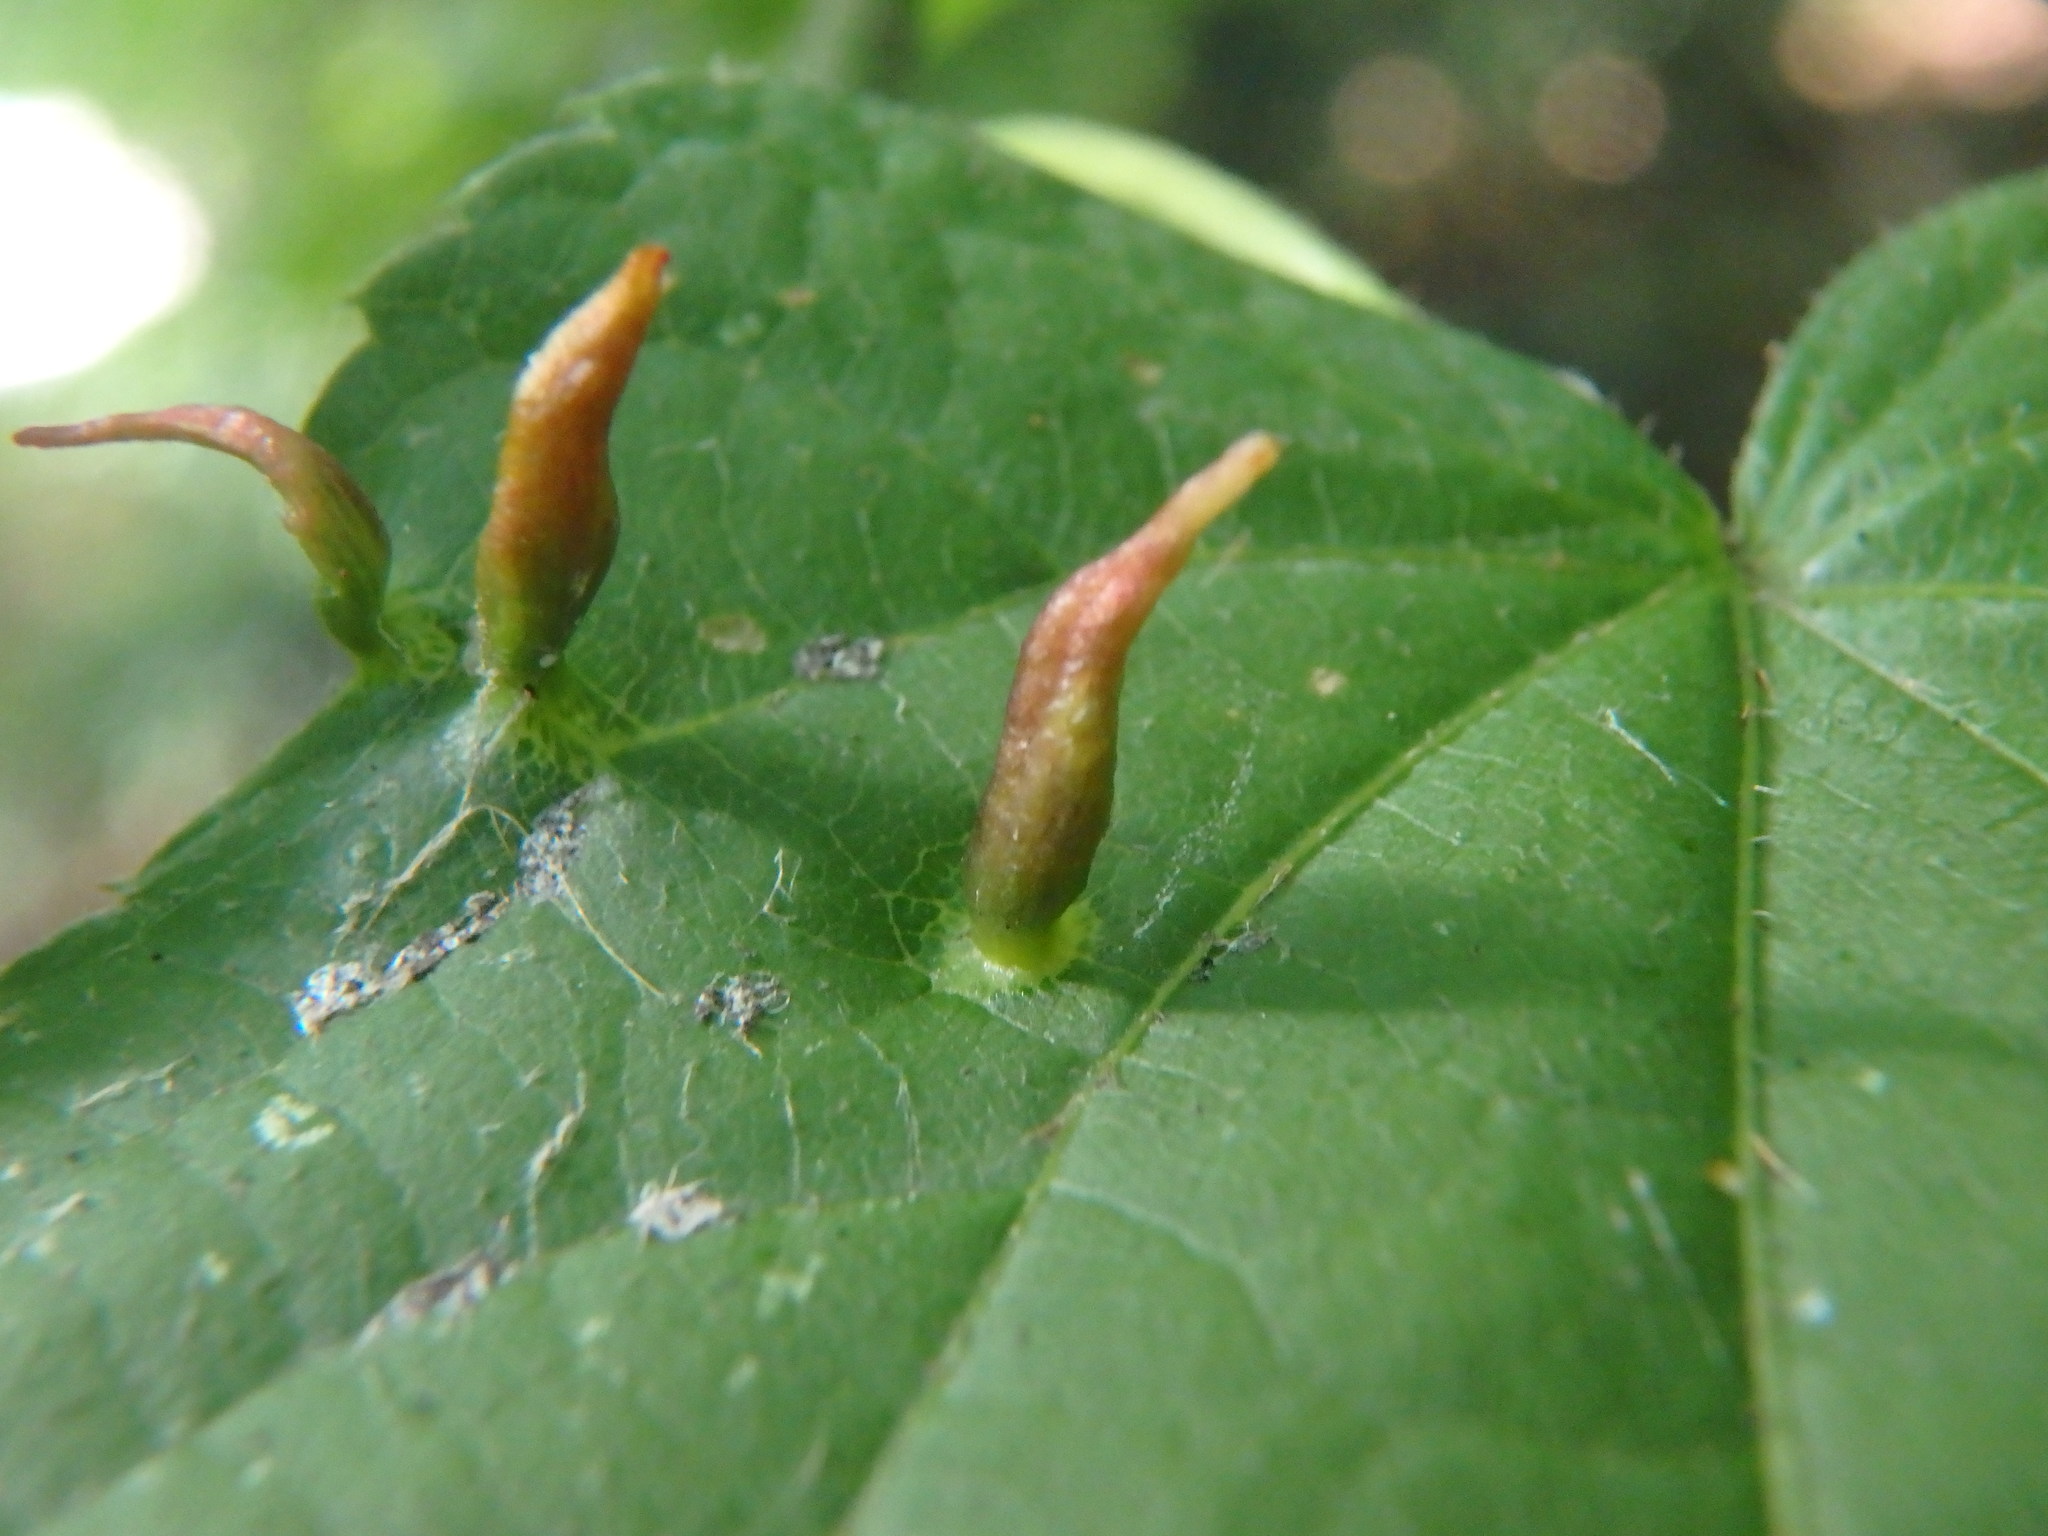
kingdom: Animalia
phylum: Arthropoda
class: Arachnida
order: Trombidiformes
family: Eriophyidae
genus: Eriophyes
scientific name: Eriophyes tiliae
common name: Red nail gall mite
